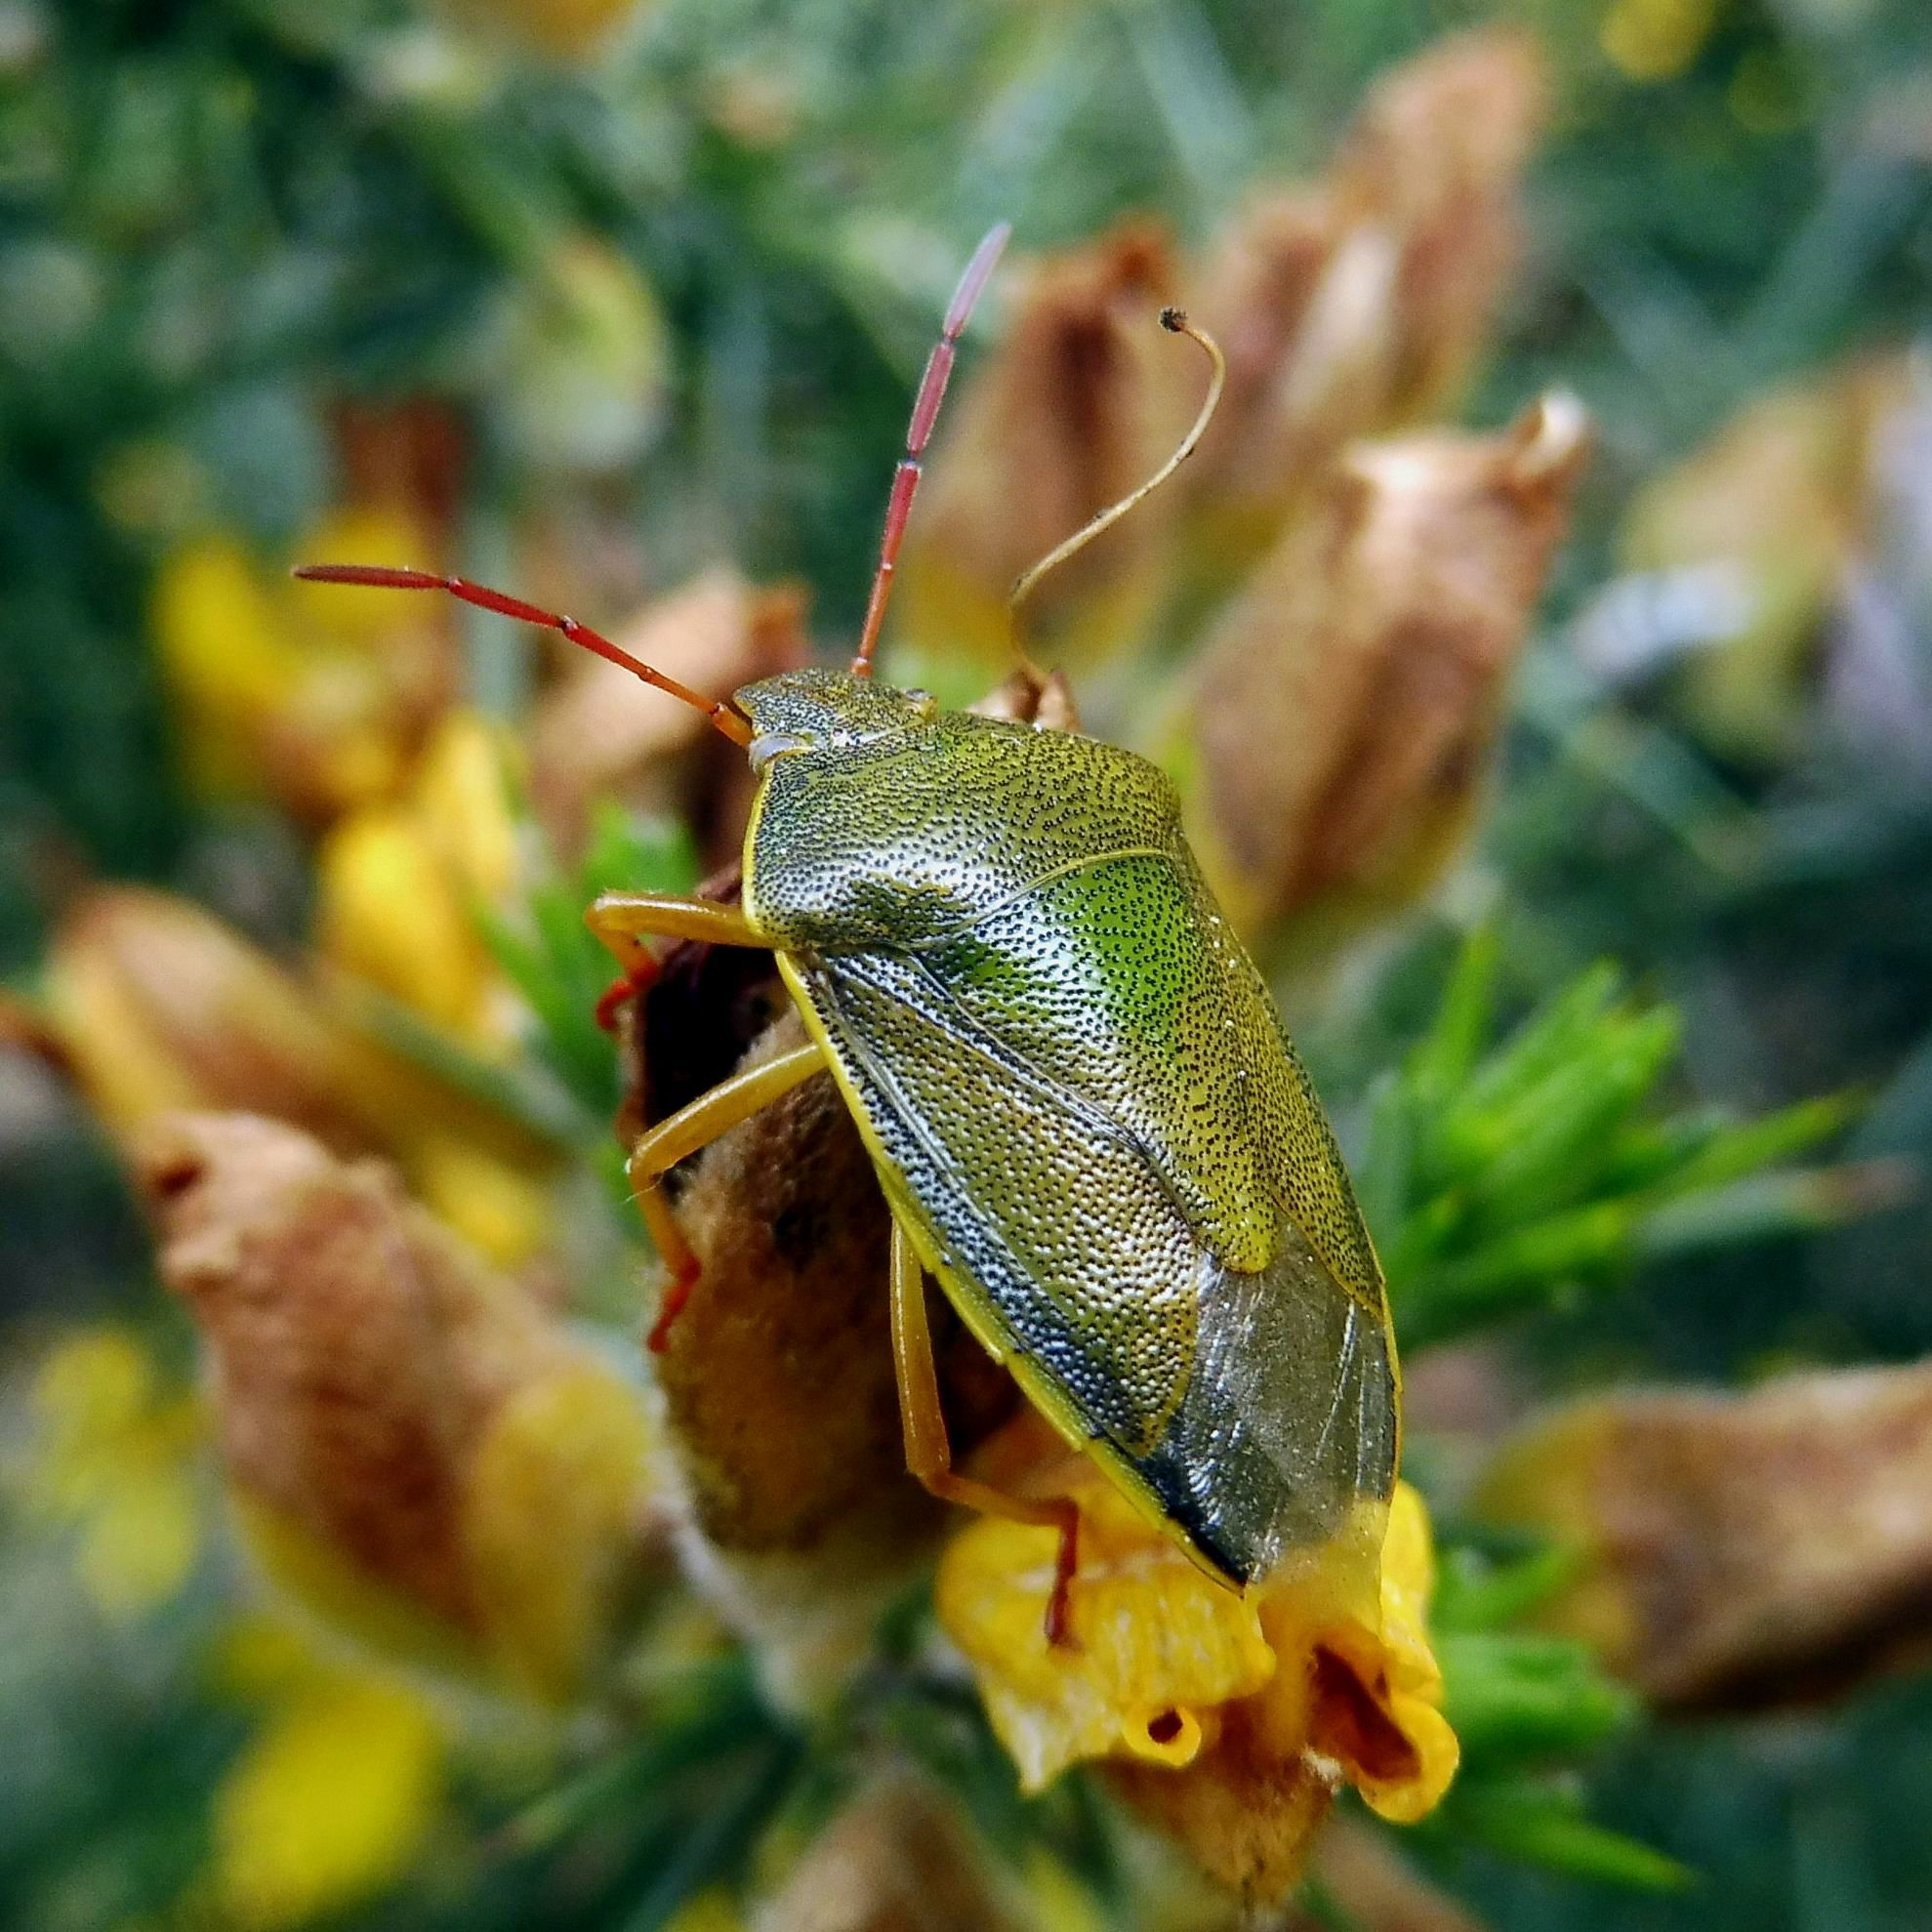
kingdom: Animalia
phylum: Arthropoda
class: Insecta
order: Hemiptera
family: Pentatomidae
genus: Piezodorus
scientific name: Piezodorus lituratus
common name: Stink bug
